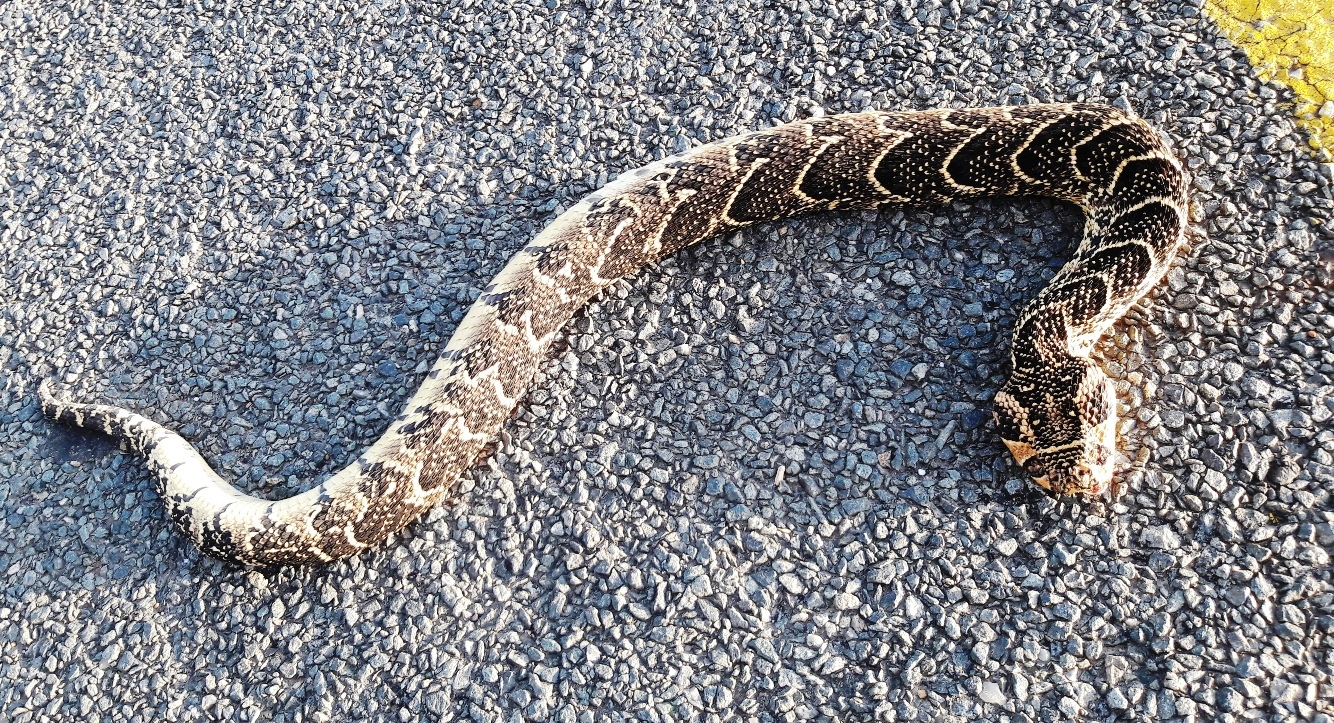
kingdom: Animalia
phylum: Chordata
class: Squamata
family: Viperidae
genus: Bitis
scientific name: Bitis arietans
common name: Puff adder
